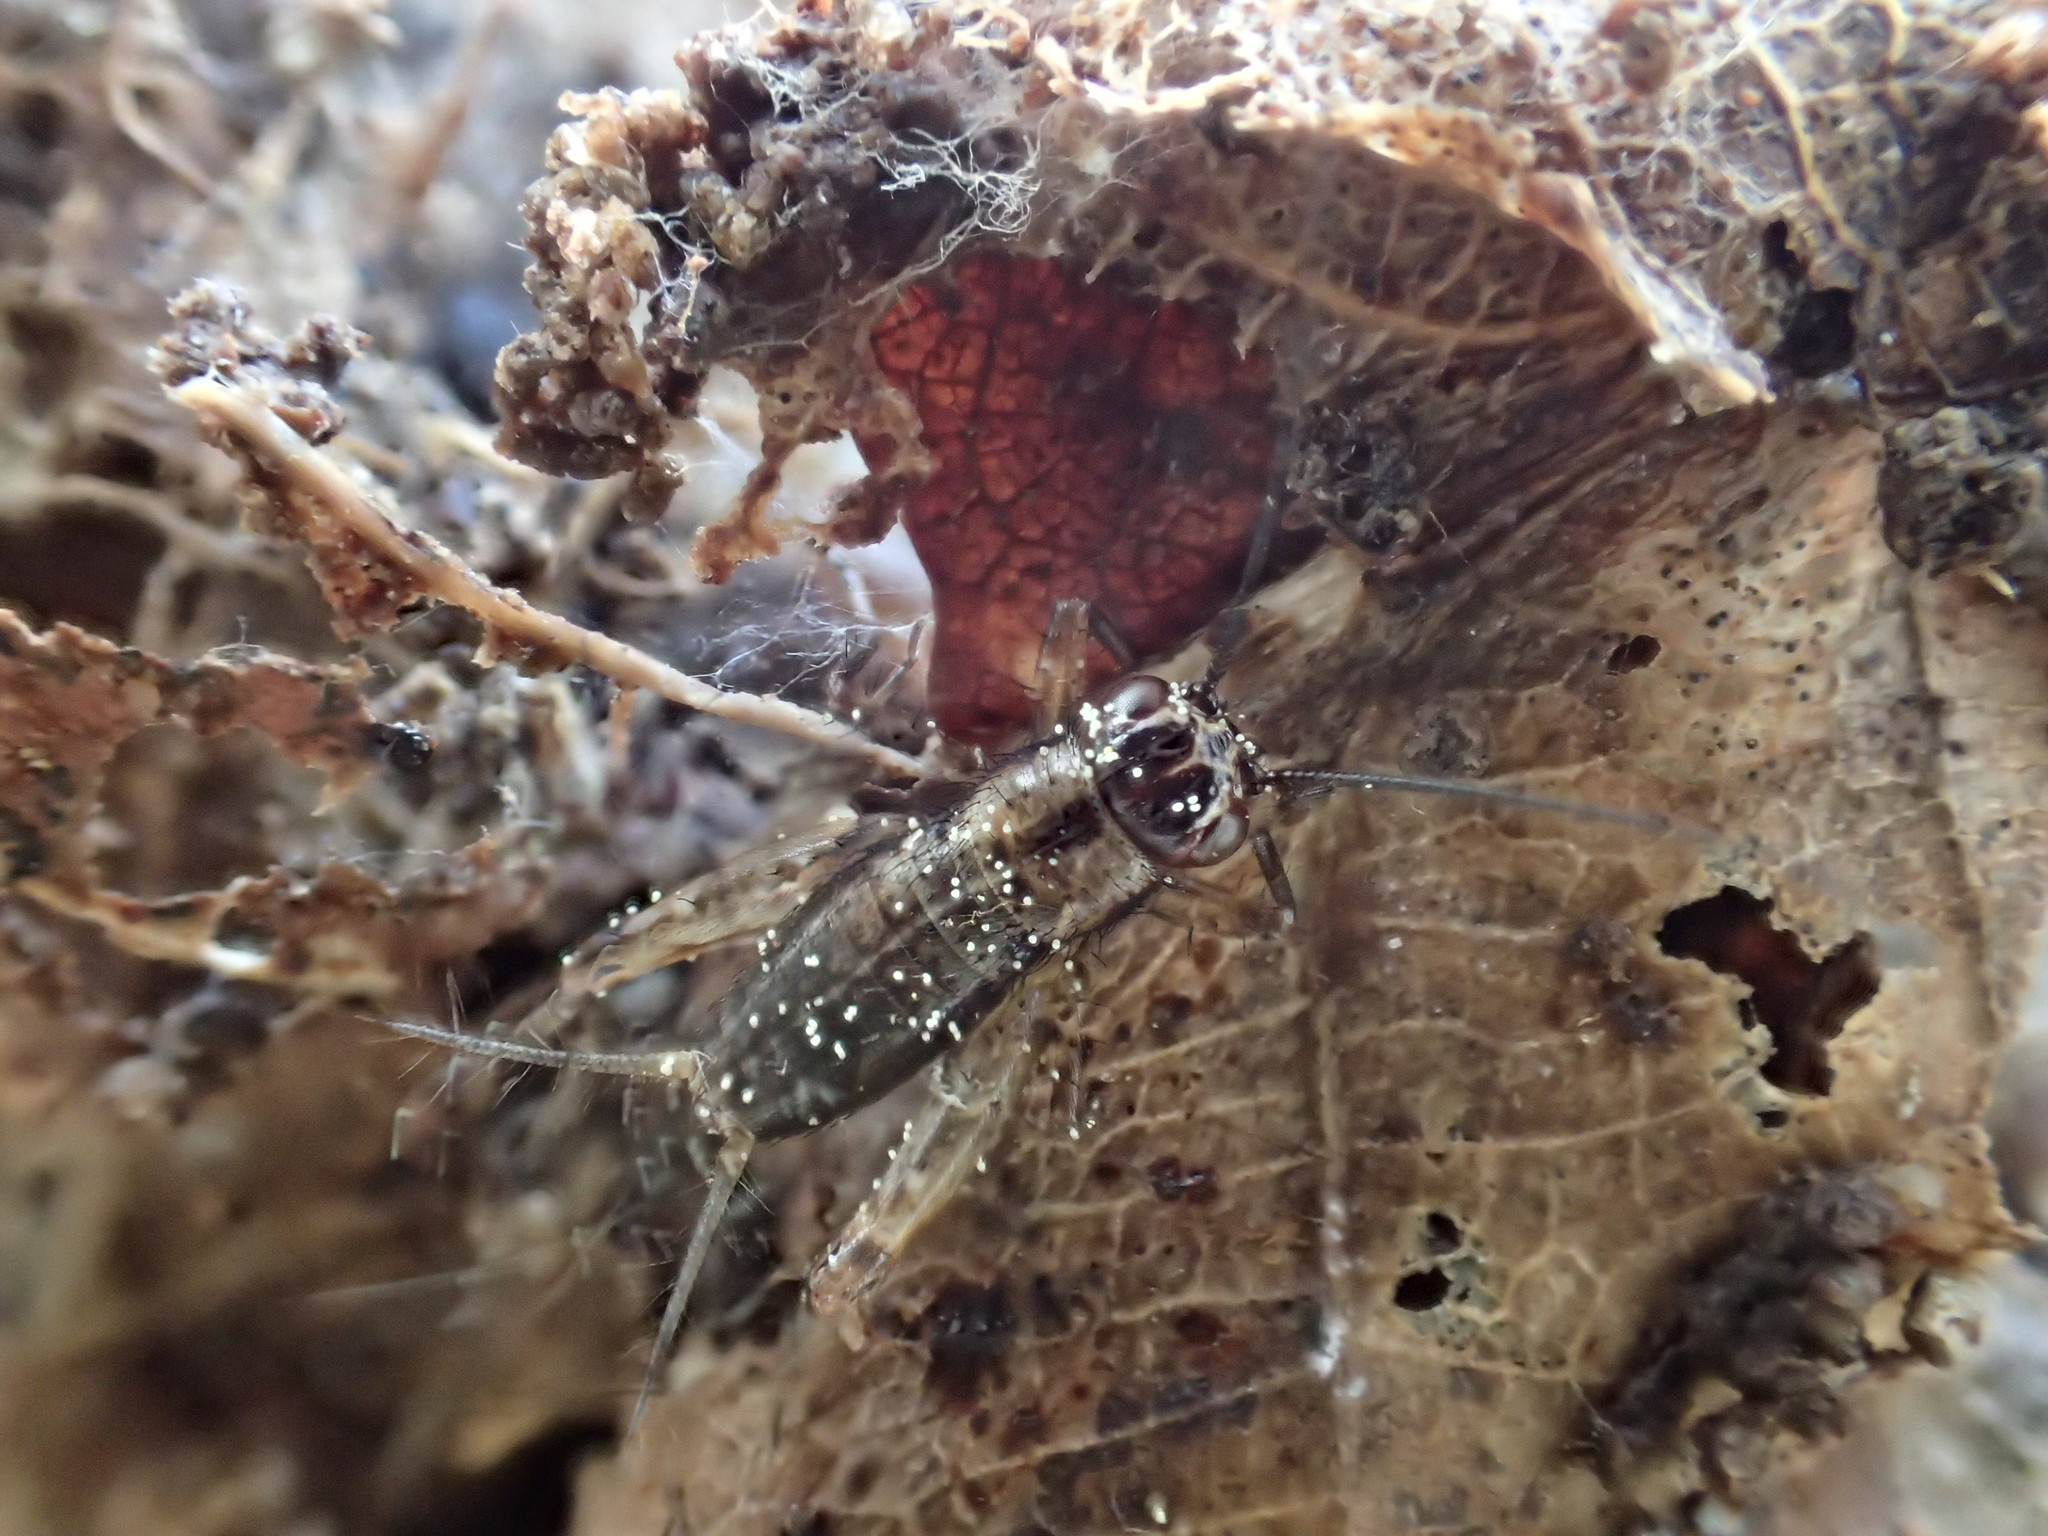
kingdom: Animalia
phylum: Arthropoda
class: Insecta
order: Orthoptera
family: Trigonidiidae
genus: Nemobius
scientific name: Nemobius sylvestris
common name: Wood-cricket
